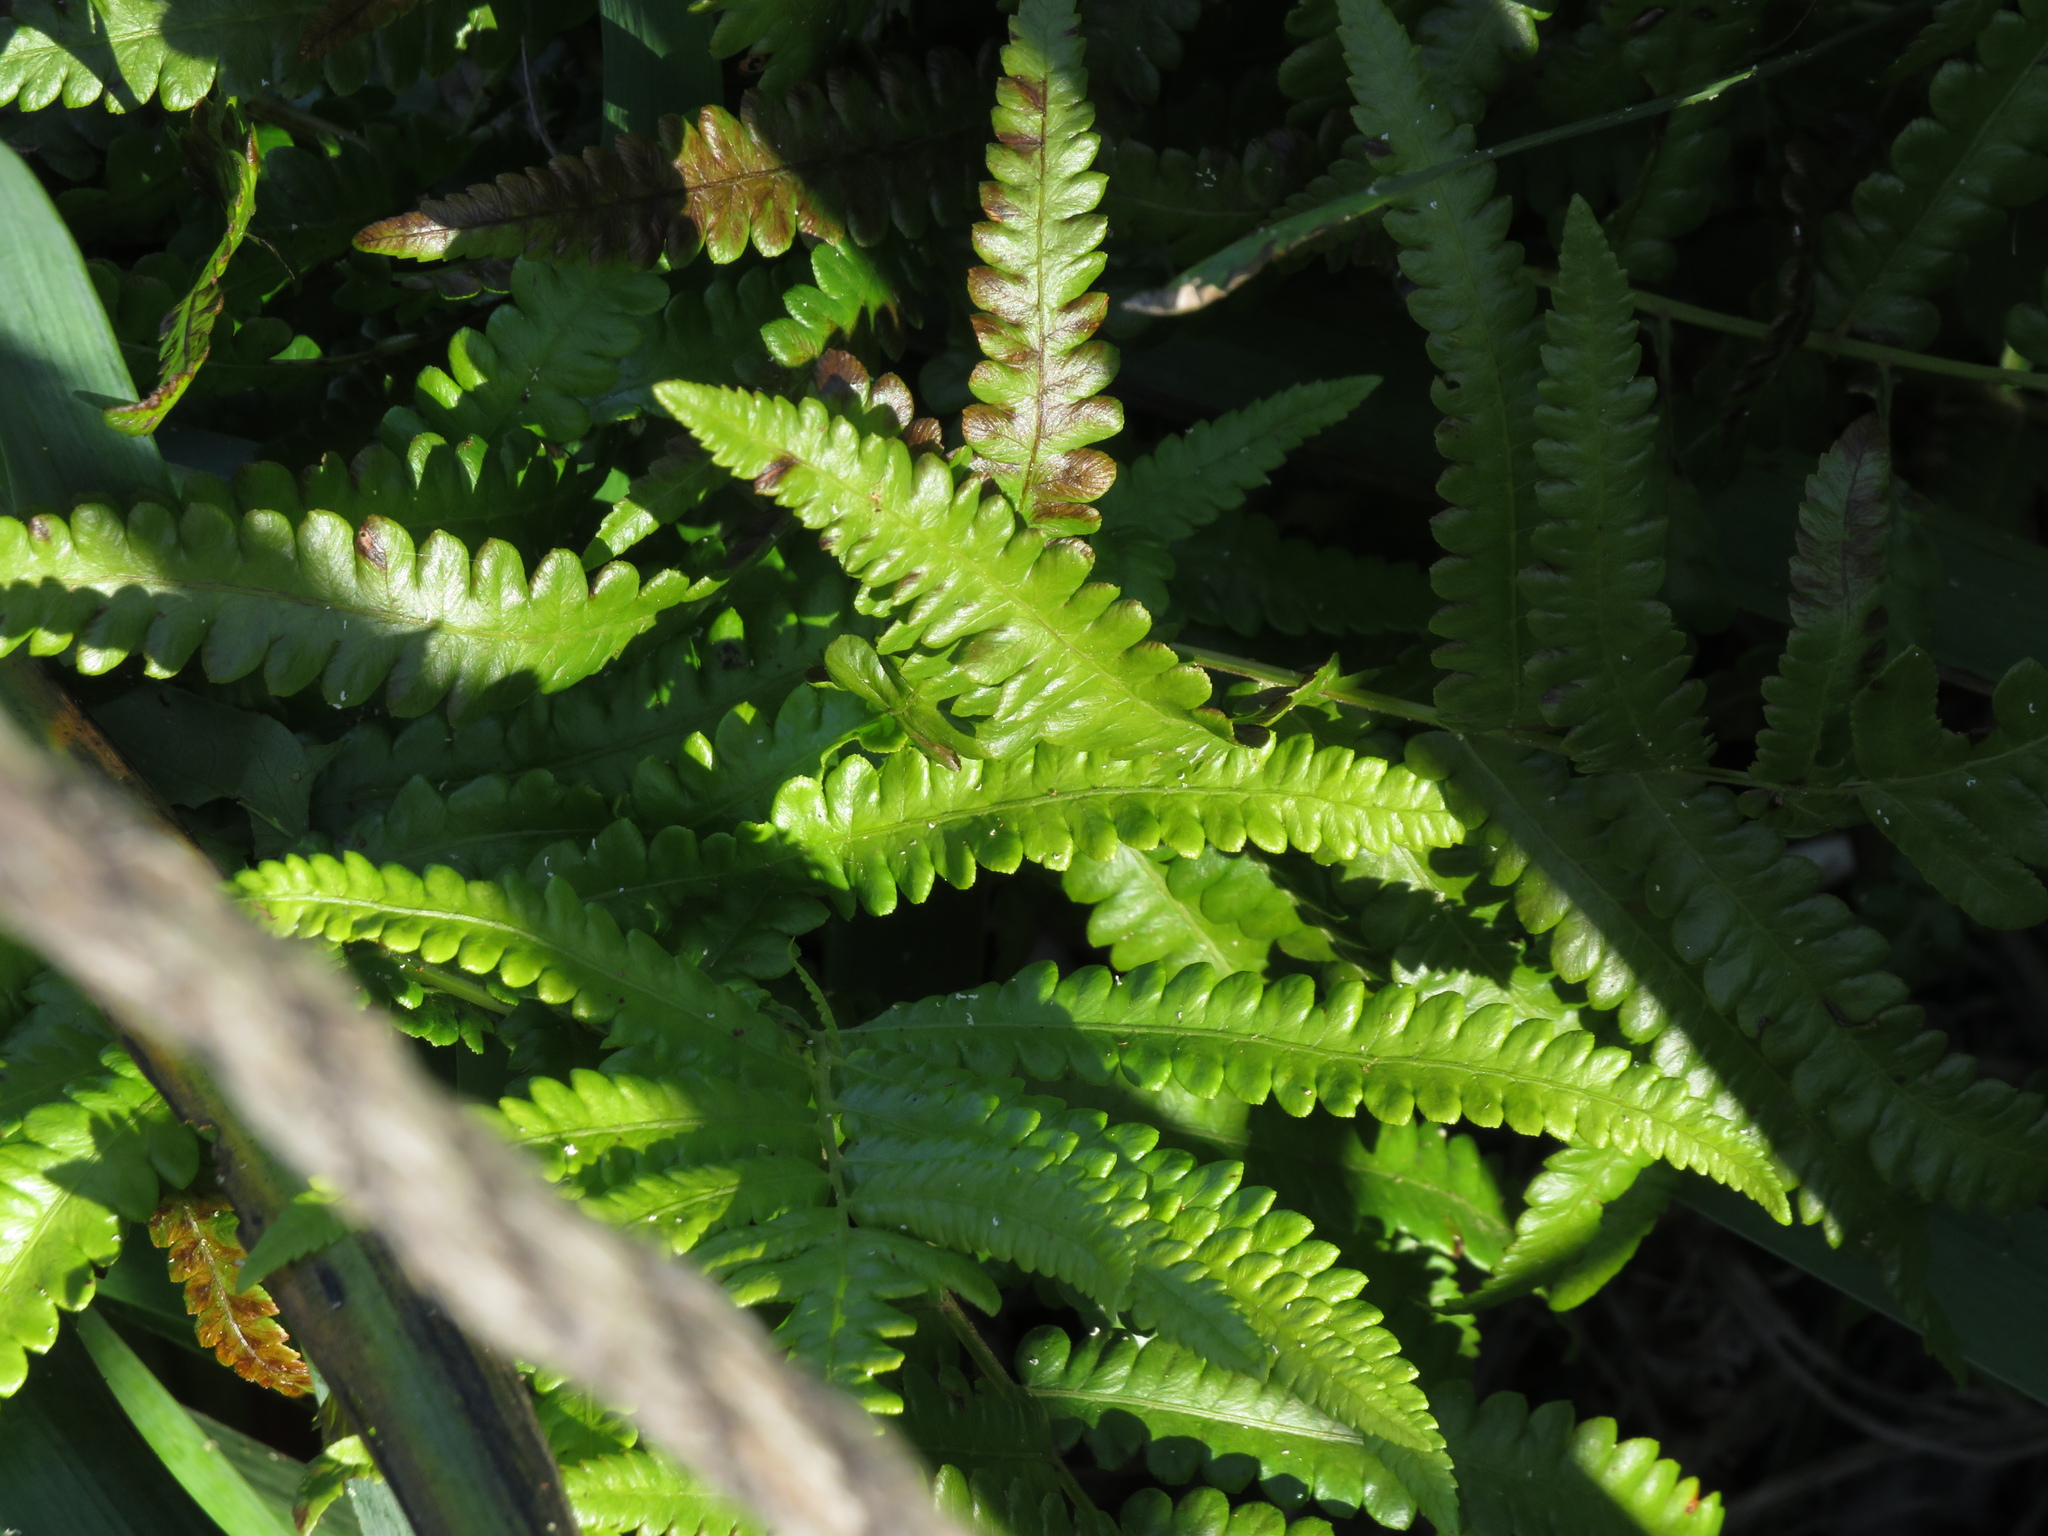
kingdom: Plantae
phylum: Tracheophyta
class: Polypodiopsida
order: Polypodiales
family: Thelypteridaceae
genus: Cyclosorus
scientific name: Cyclosorus interruptus
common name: Neke fern
